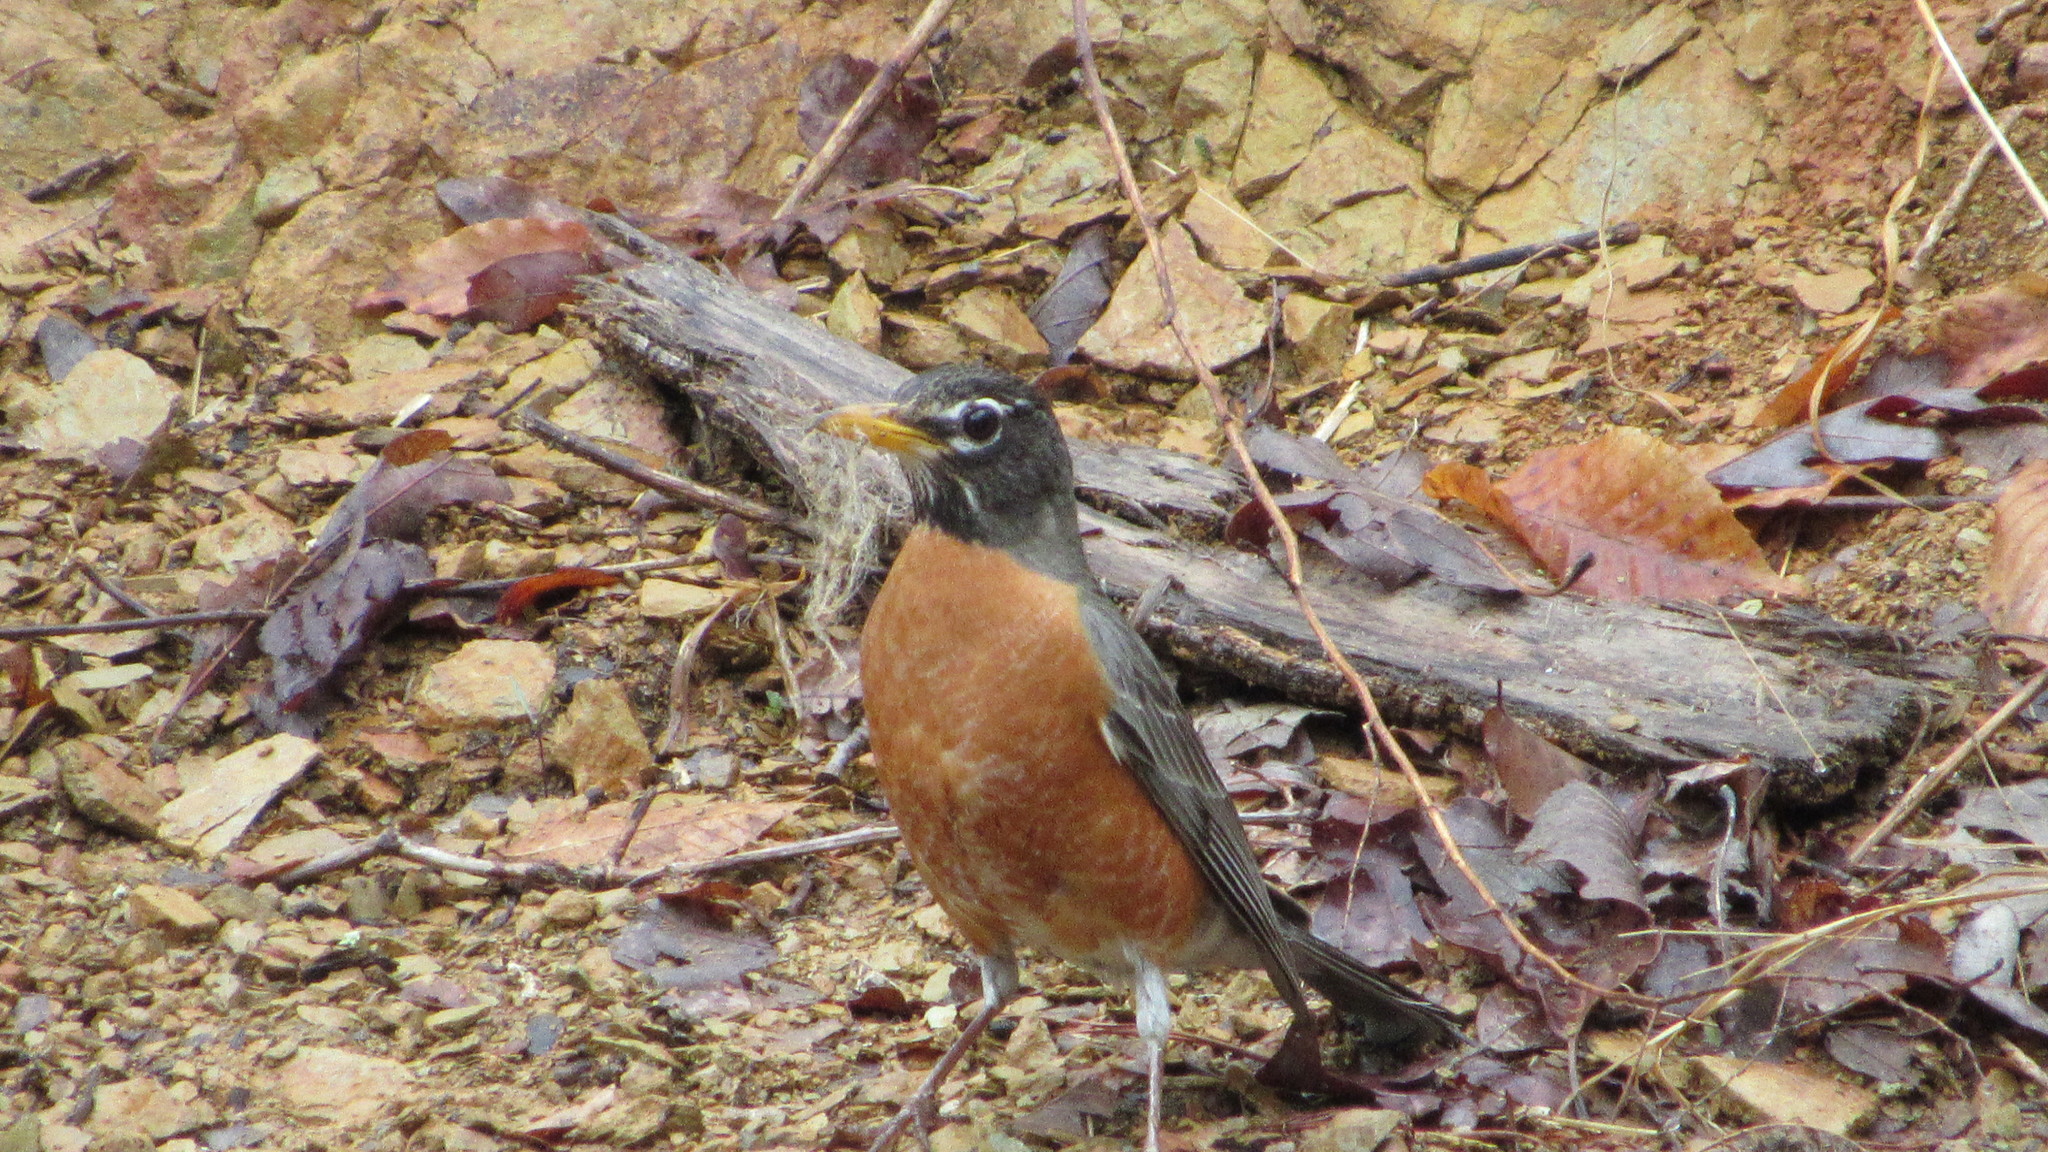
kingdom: Animalia
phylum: Chordata
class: Aves
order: Passeriformes
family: Turdidae
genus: Turdus
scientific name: Turdus migratorius
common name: American robin
